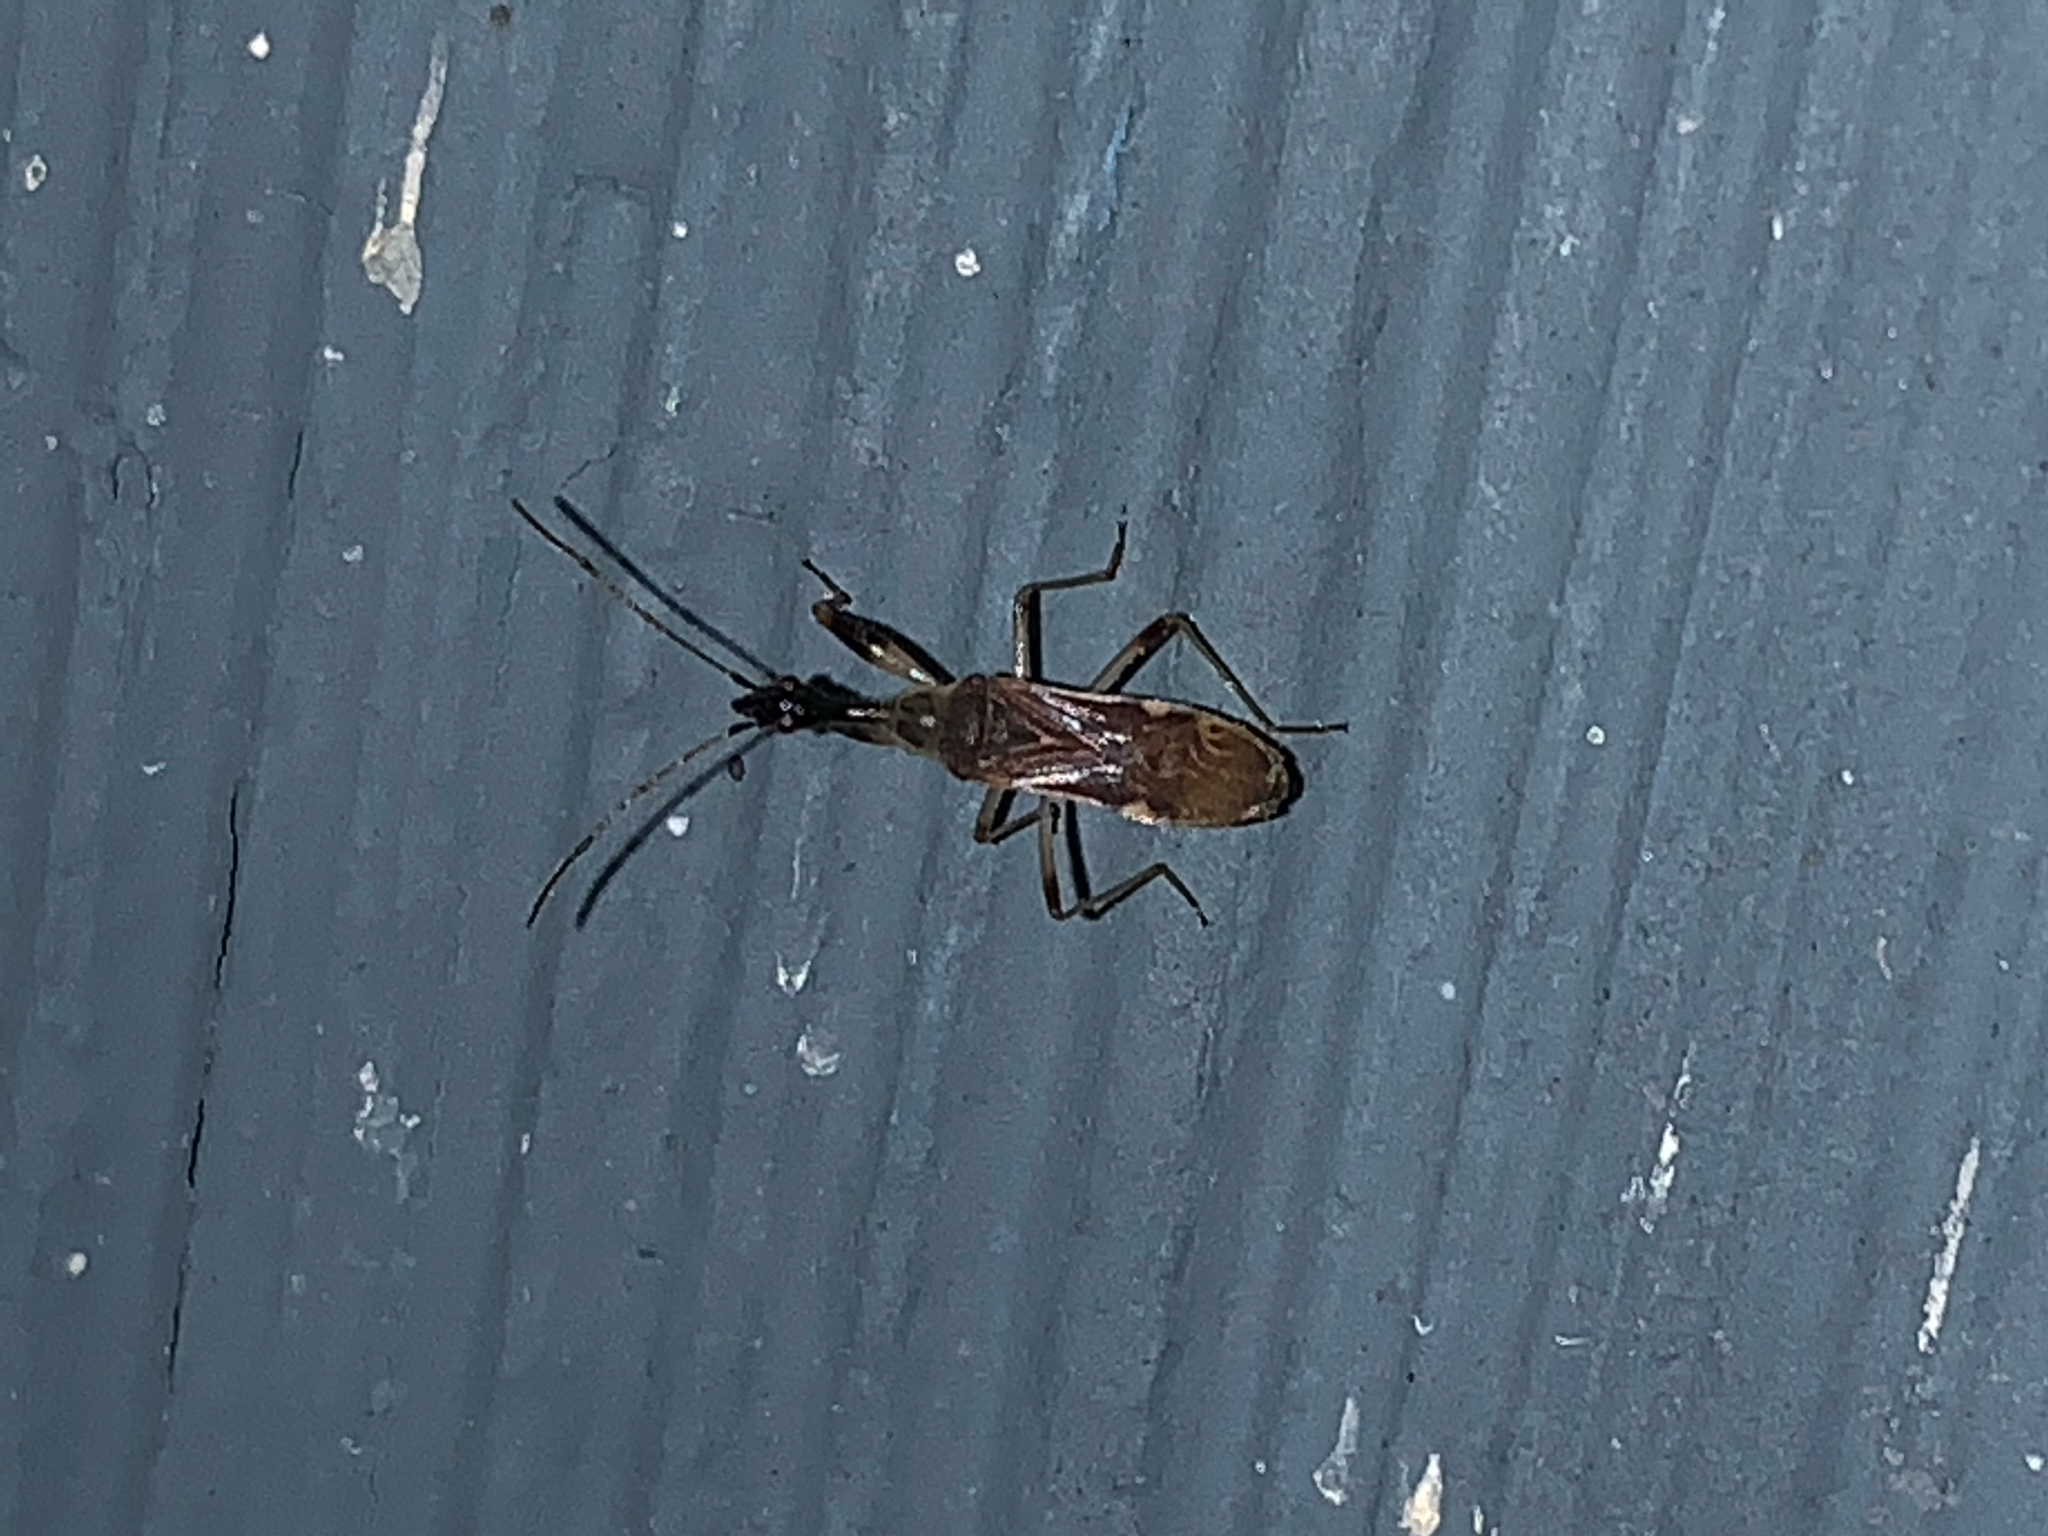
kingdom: Animalia
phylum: Arthropoda
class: Insecta
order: Hemiptera
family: Rhyparochromidae
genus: Myodocha
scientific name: Myodocha serripes
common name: Long-necked seed bug
